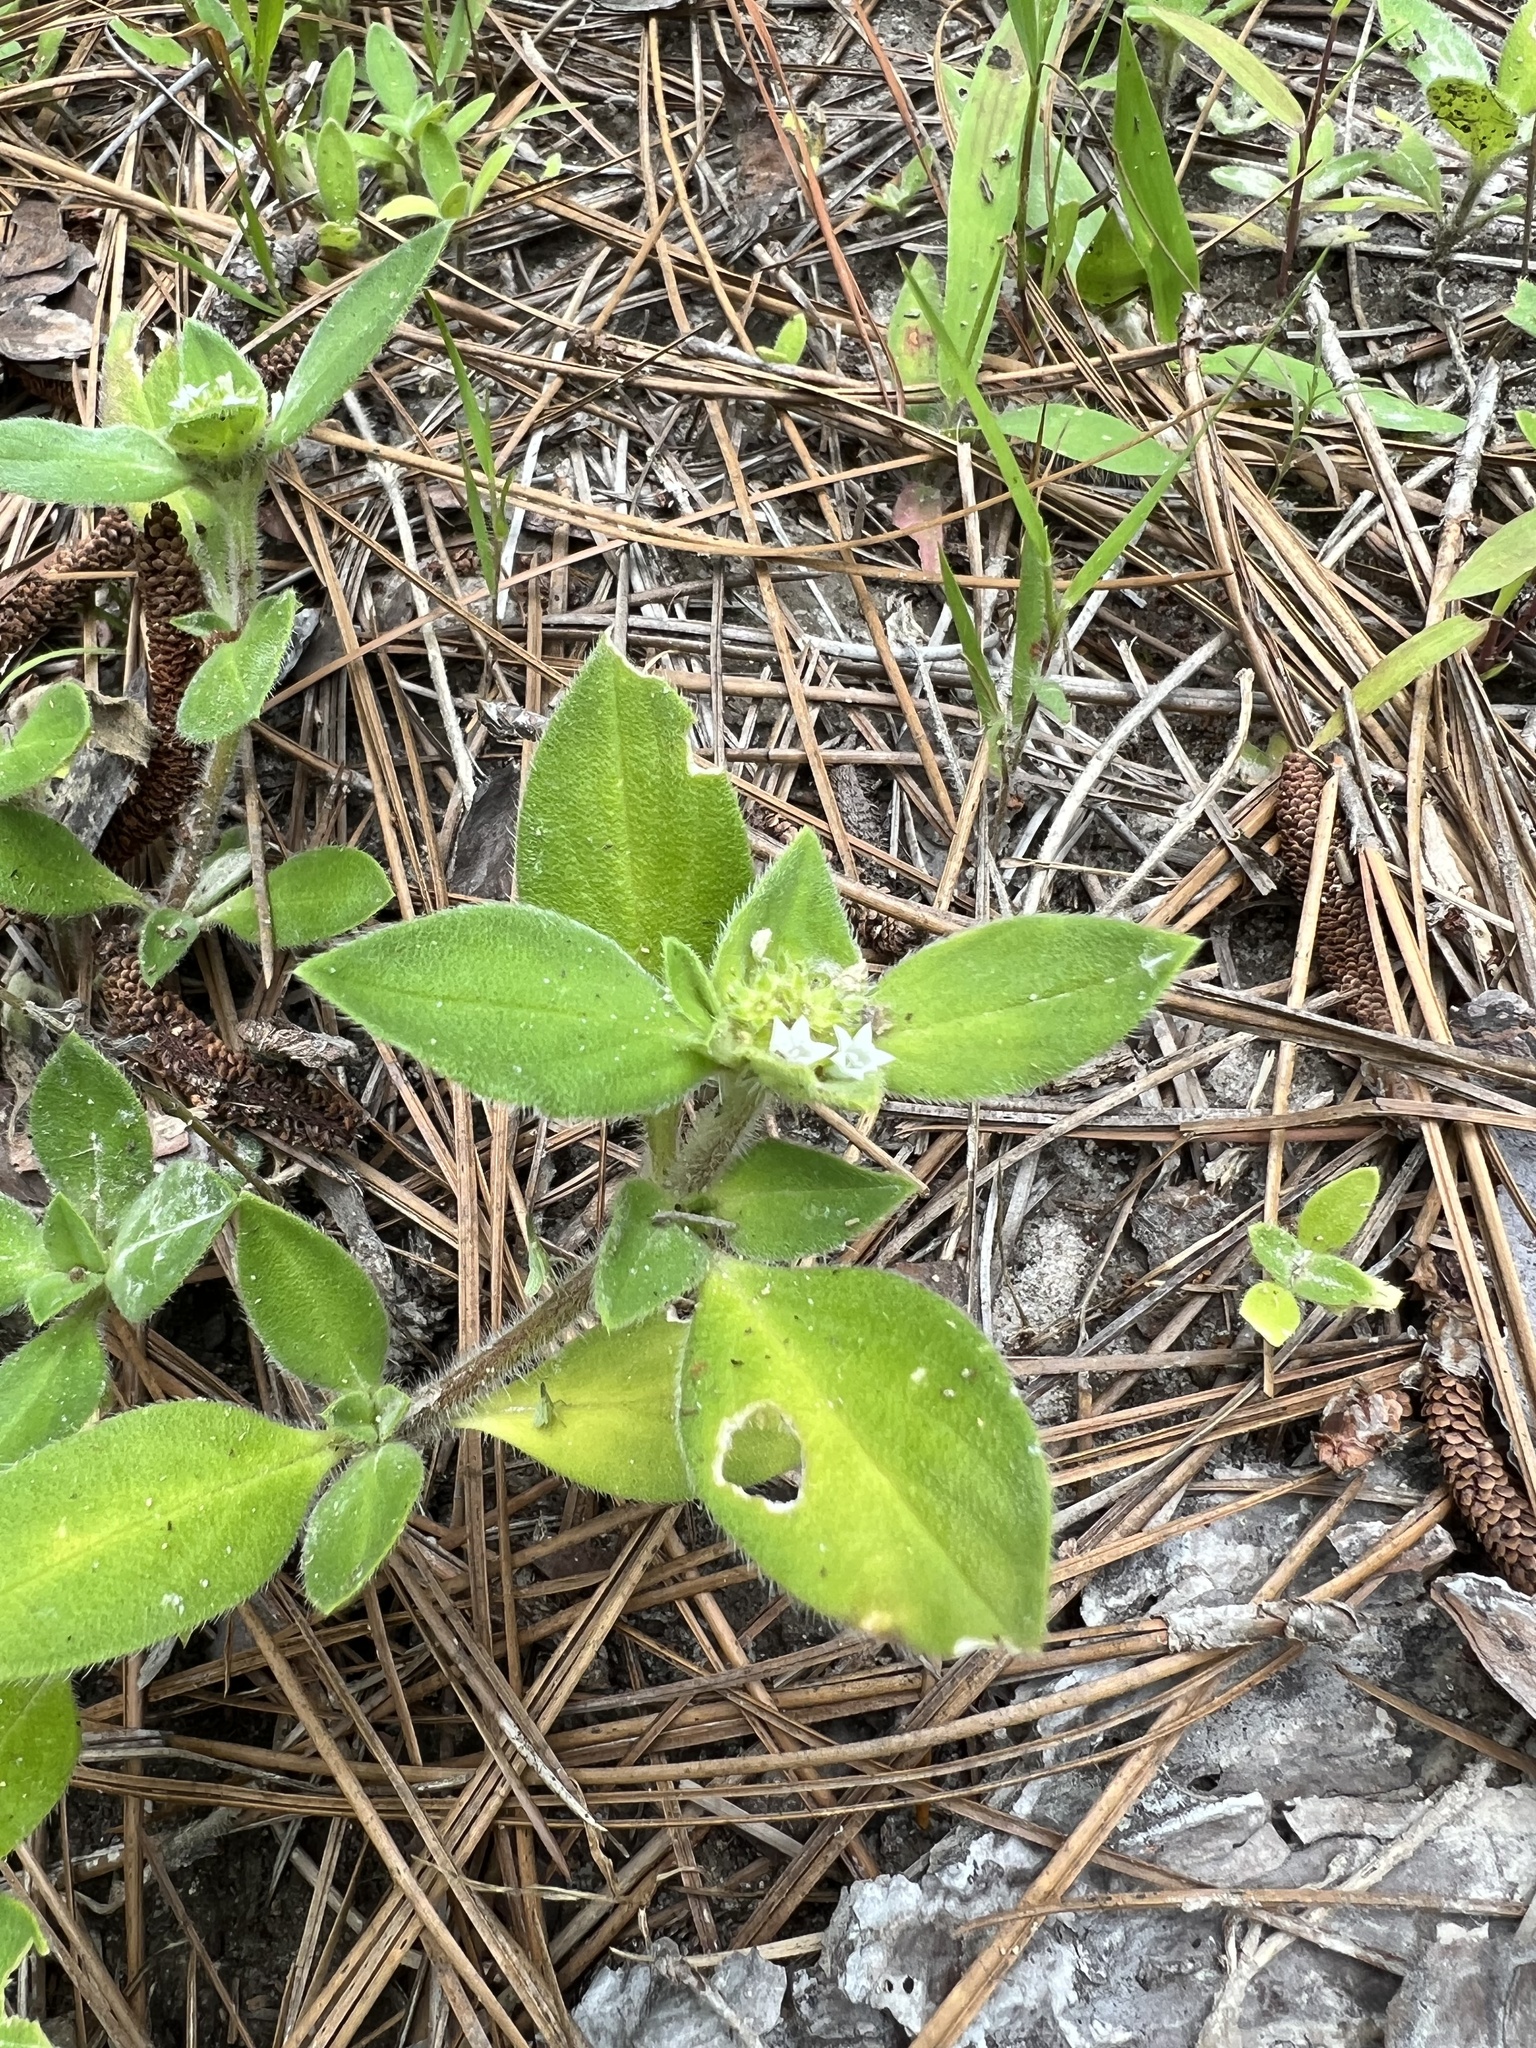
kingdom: Plantae
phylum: Tracheophyta
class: Magnoliopsida
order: Gentianales
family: Rubiaceae
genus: Richardia
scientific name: Richardia brasiliensis
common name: Tropical mexican clover
